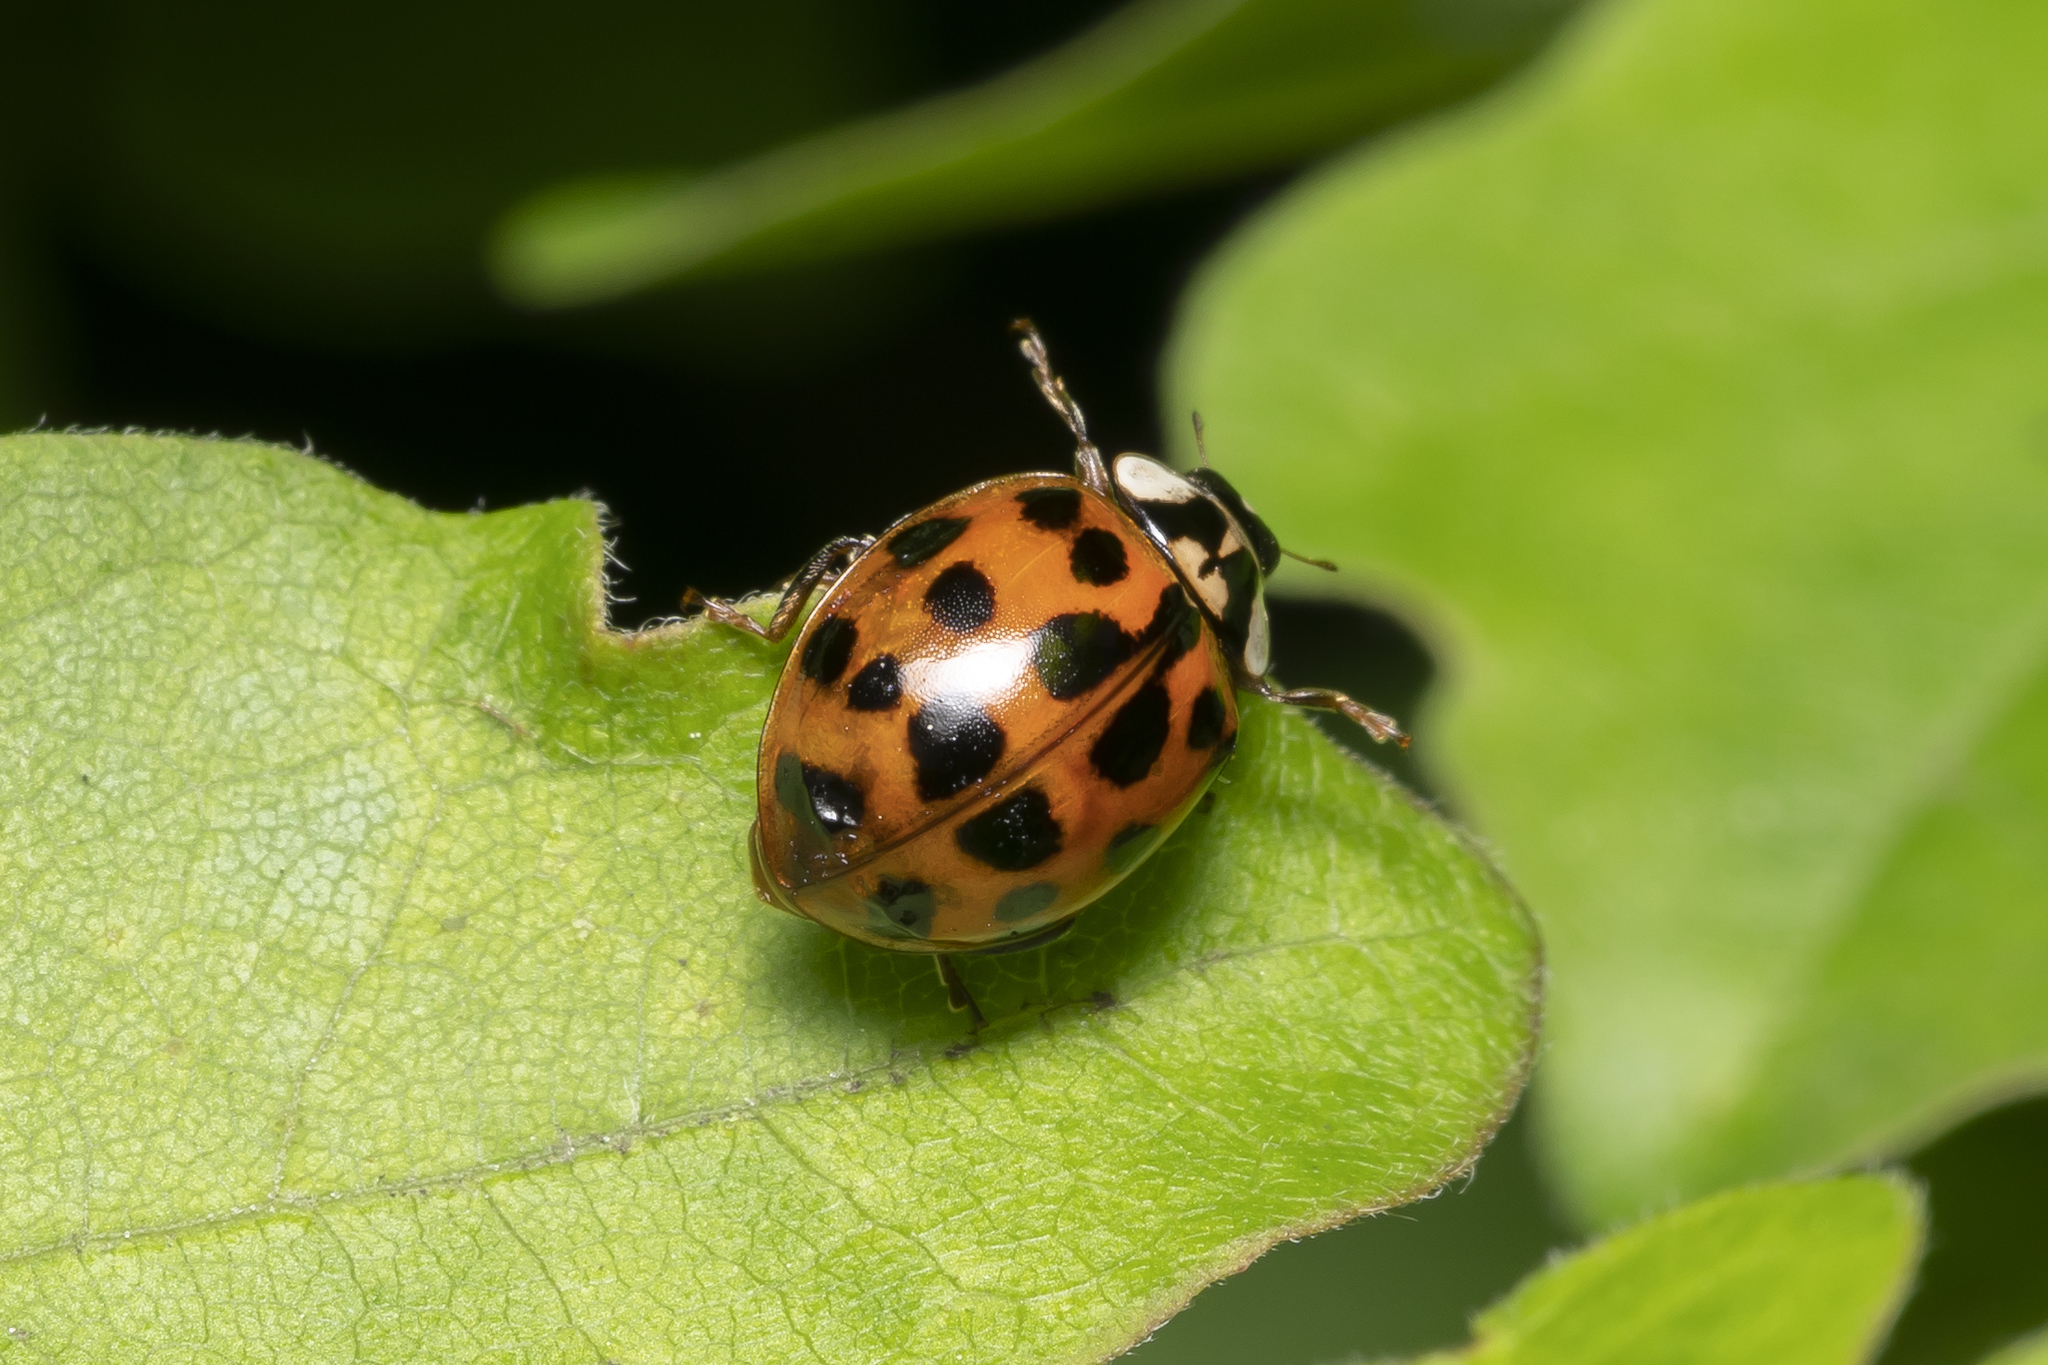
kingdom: Animalia
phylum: Arthropoda
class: Insecta
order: Coleoptera
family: Coccinellidae
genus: Harmonia
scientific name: Harmonia axyridis
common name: Harlequin ladybird
